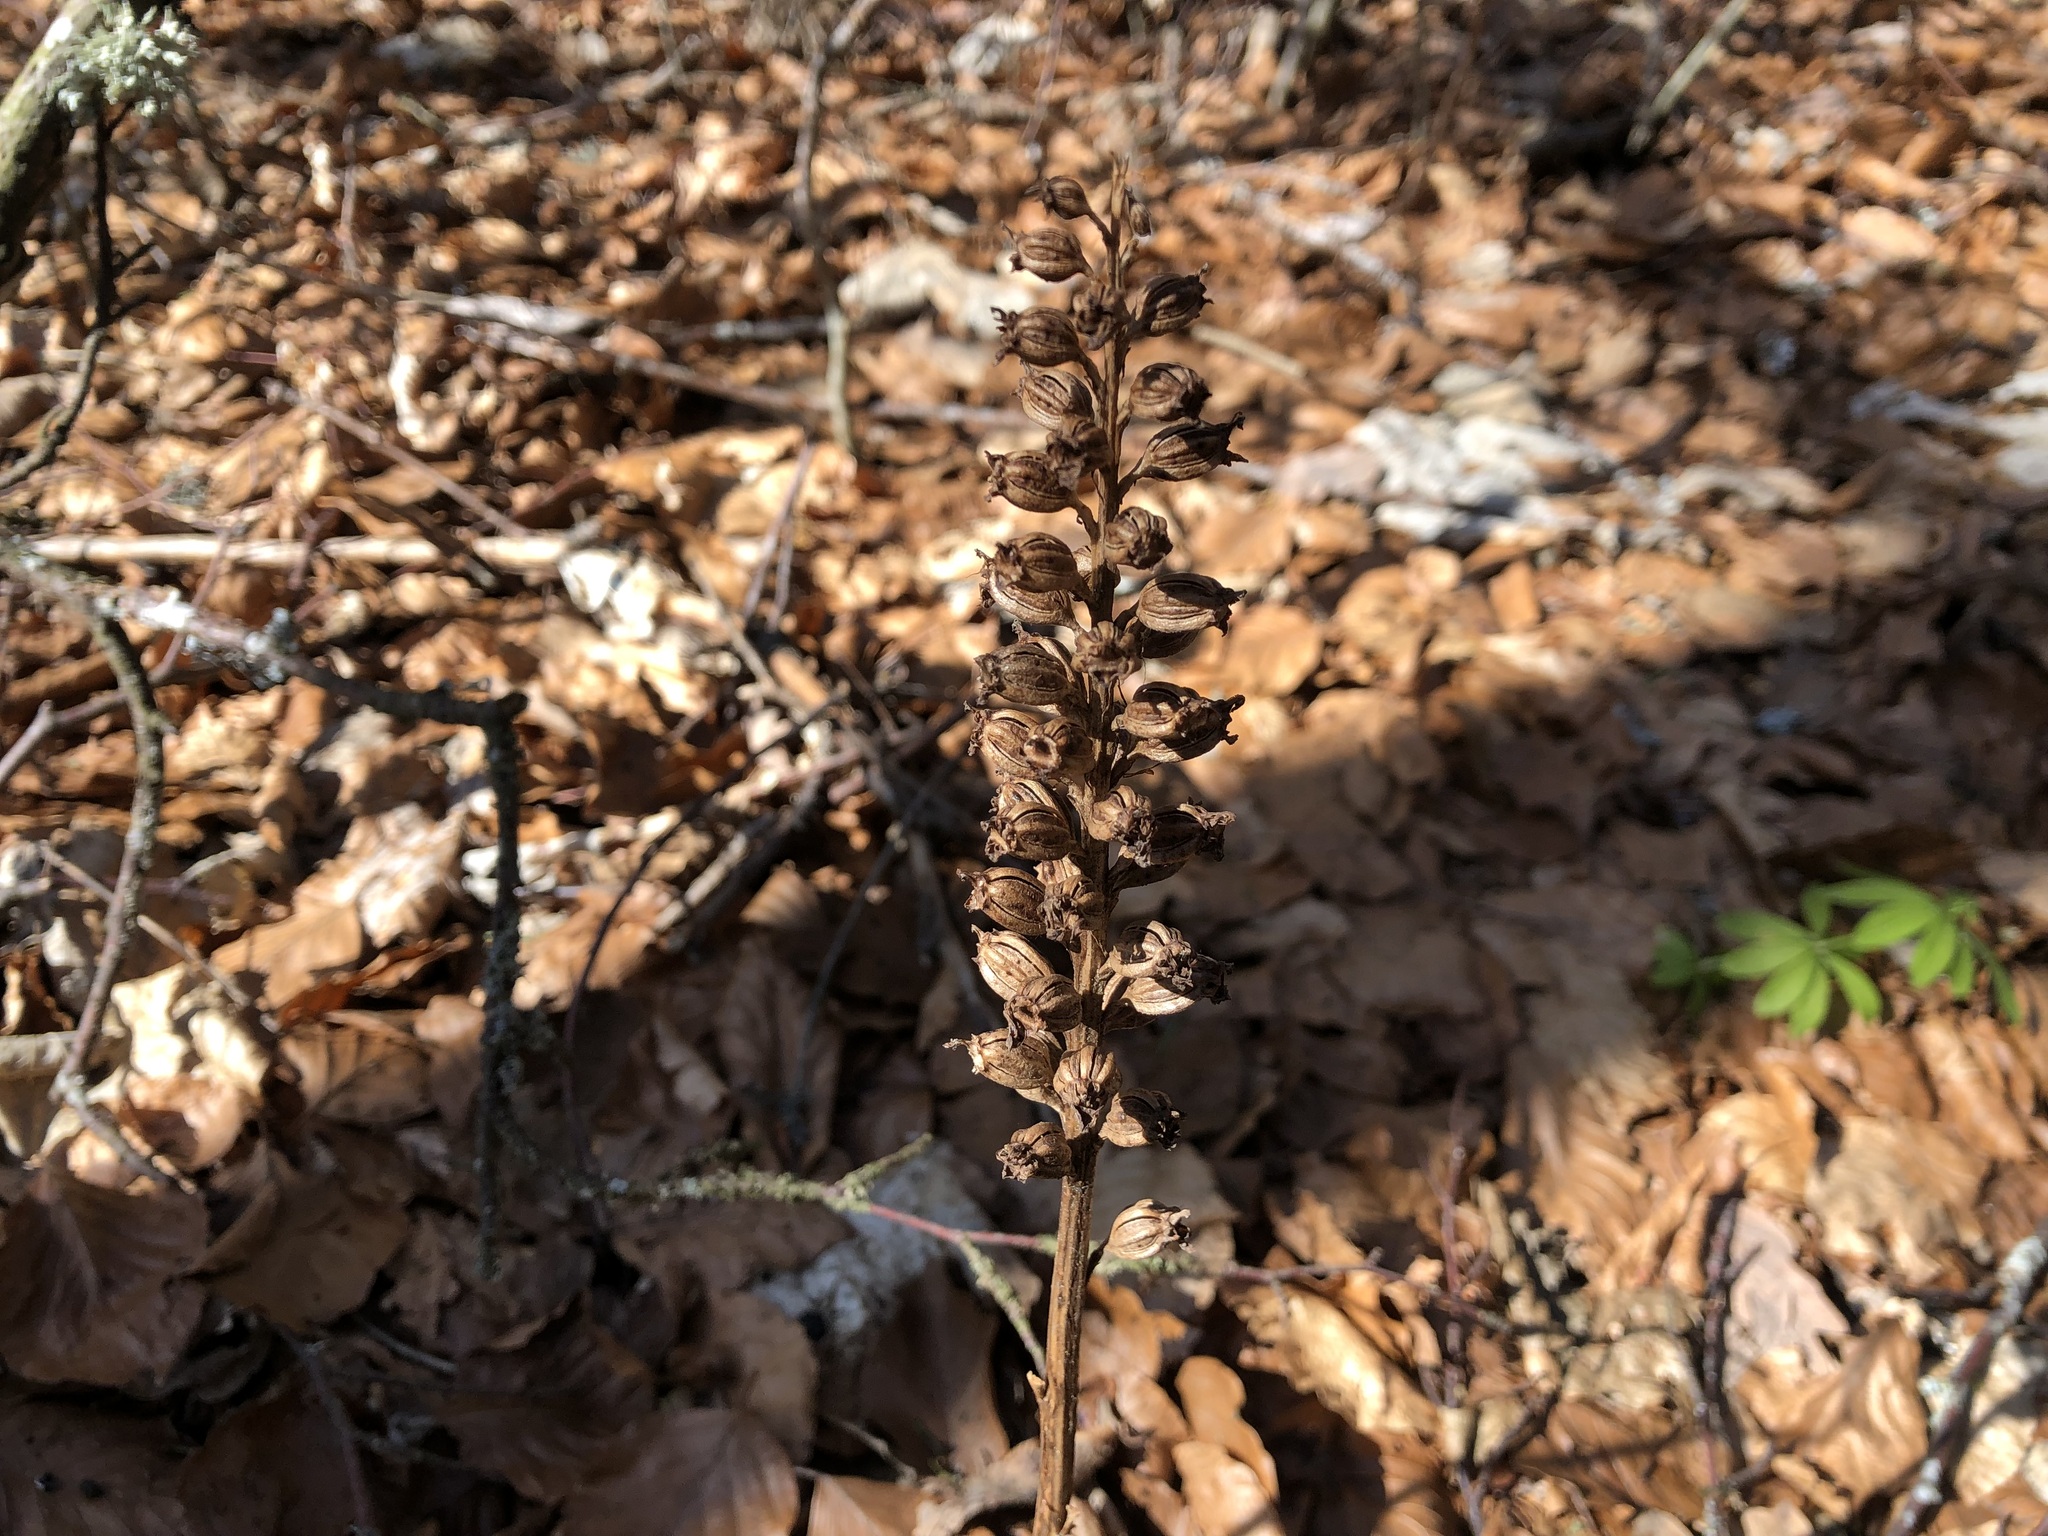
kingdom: Plantae
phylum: Tracheophyta
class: Liliopsida
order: Asparagales
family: Orchidaceae
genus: Neottia
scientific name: Neottia nidus-avis
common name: Bird's-nest orchid
